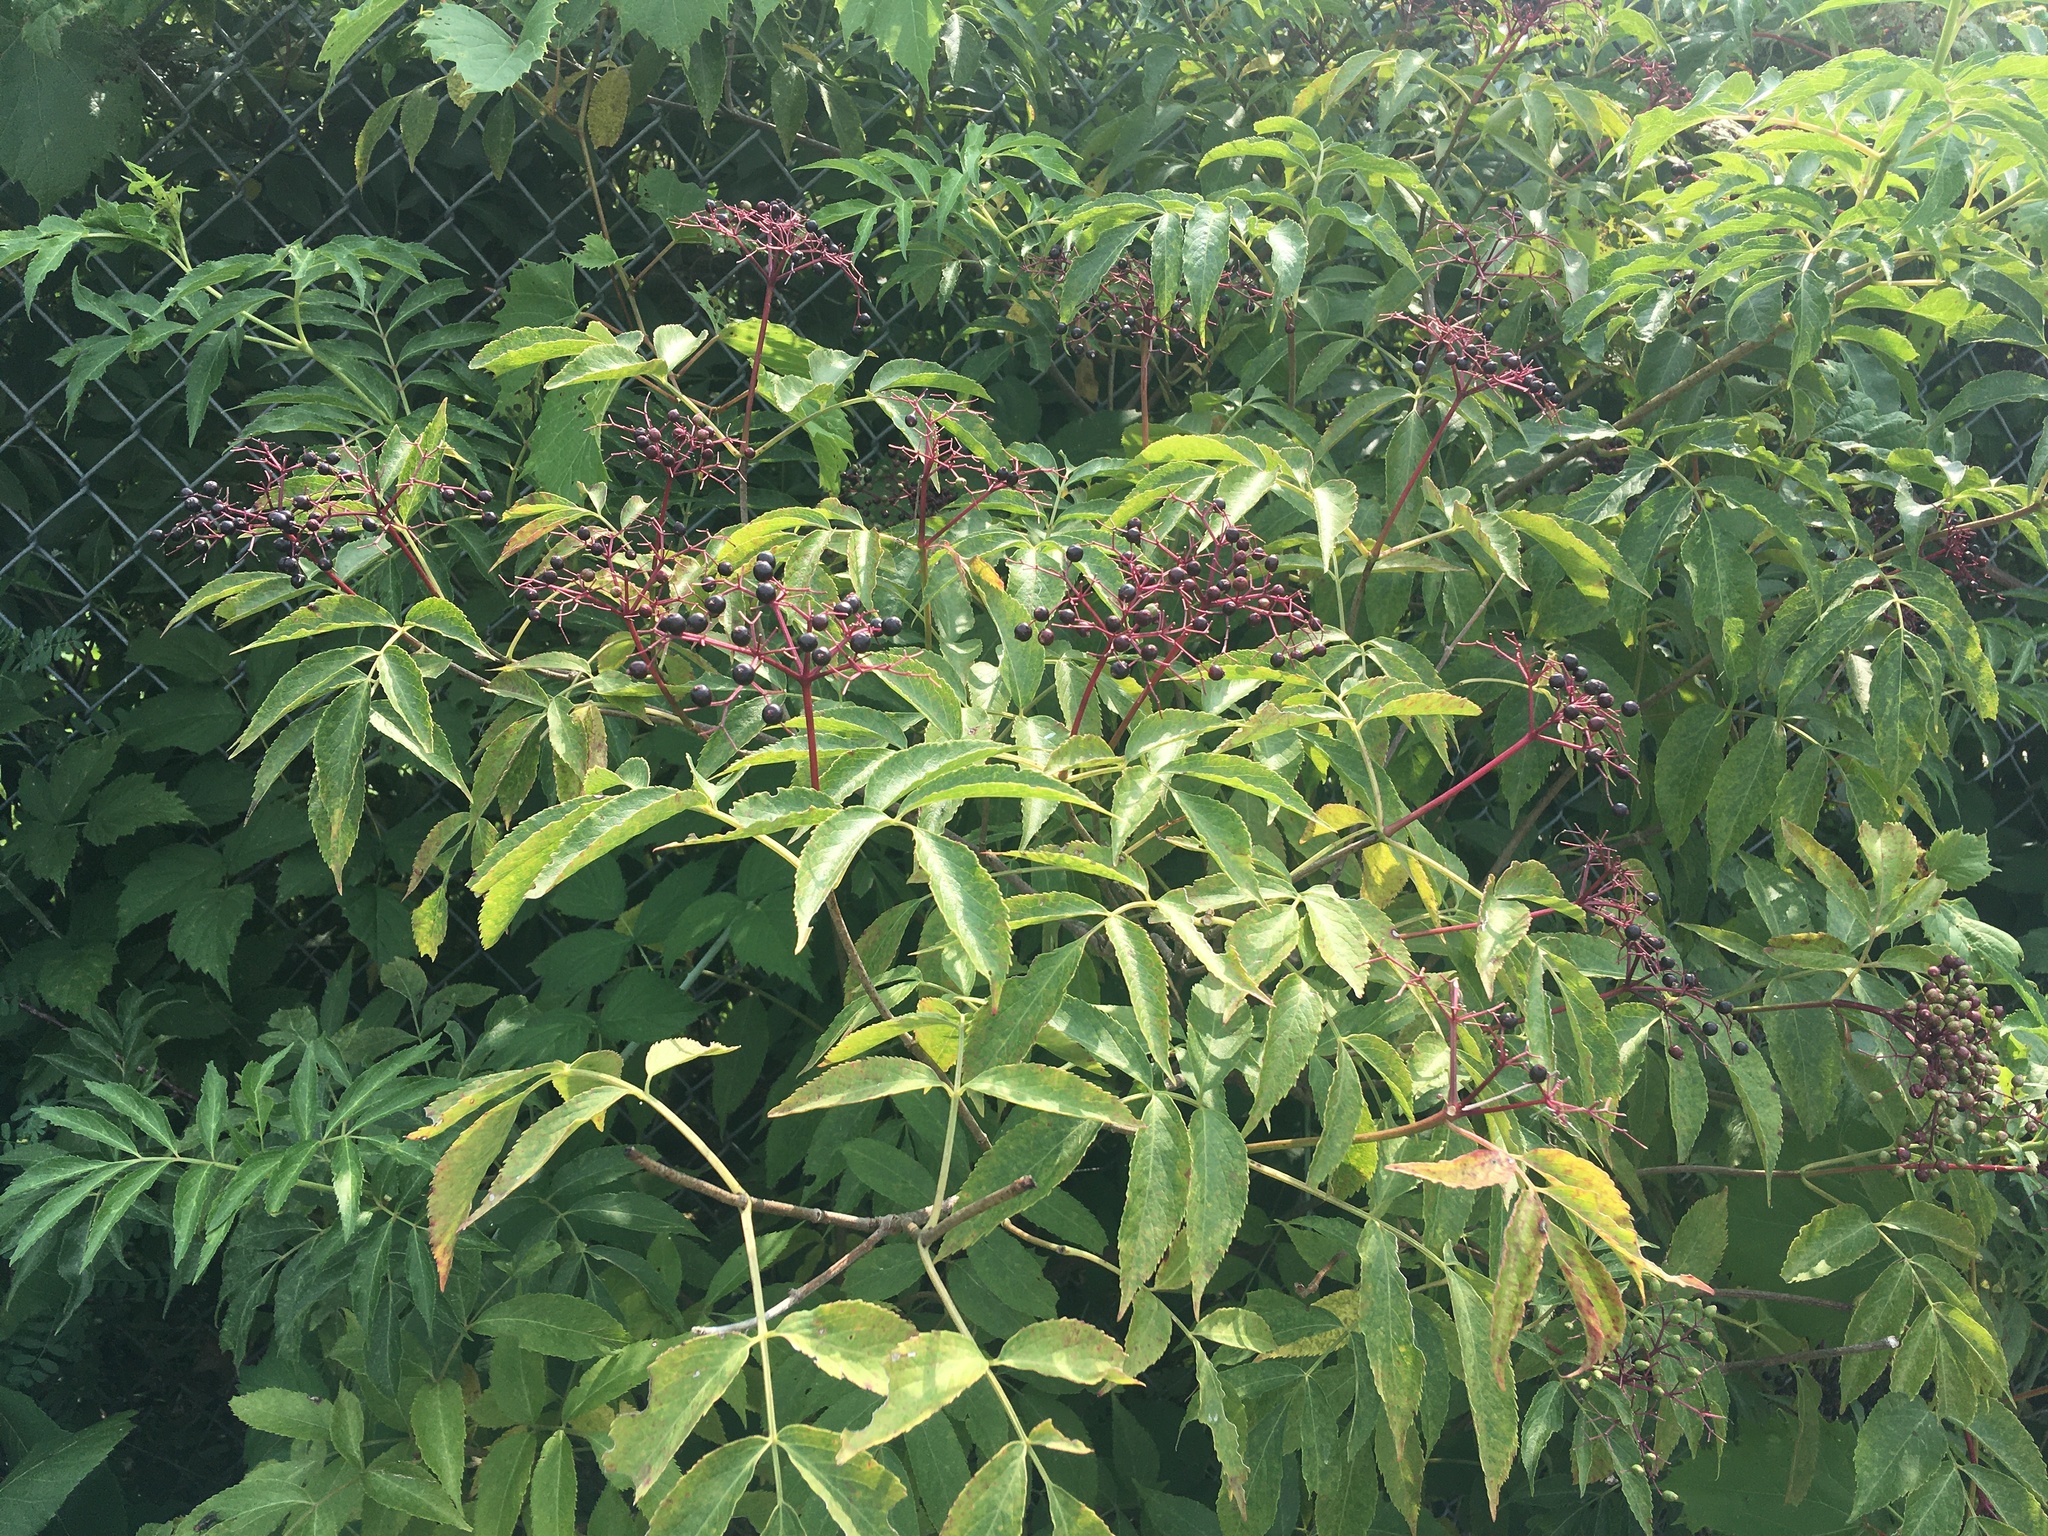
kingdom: Plantae
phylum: Tracheophyta
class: Magnoliopsida
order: Dipsacales
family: Viburnaceae
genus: Sambucus
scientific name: Sambucus canadensis
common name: American elder
